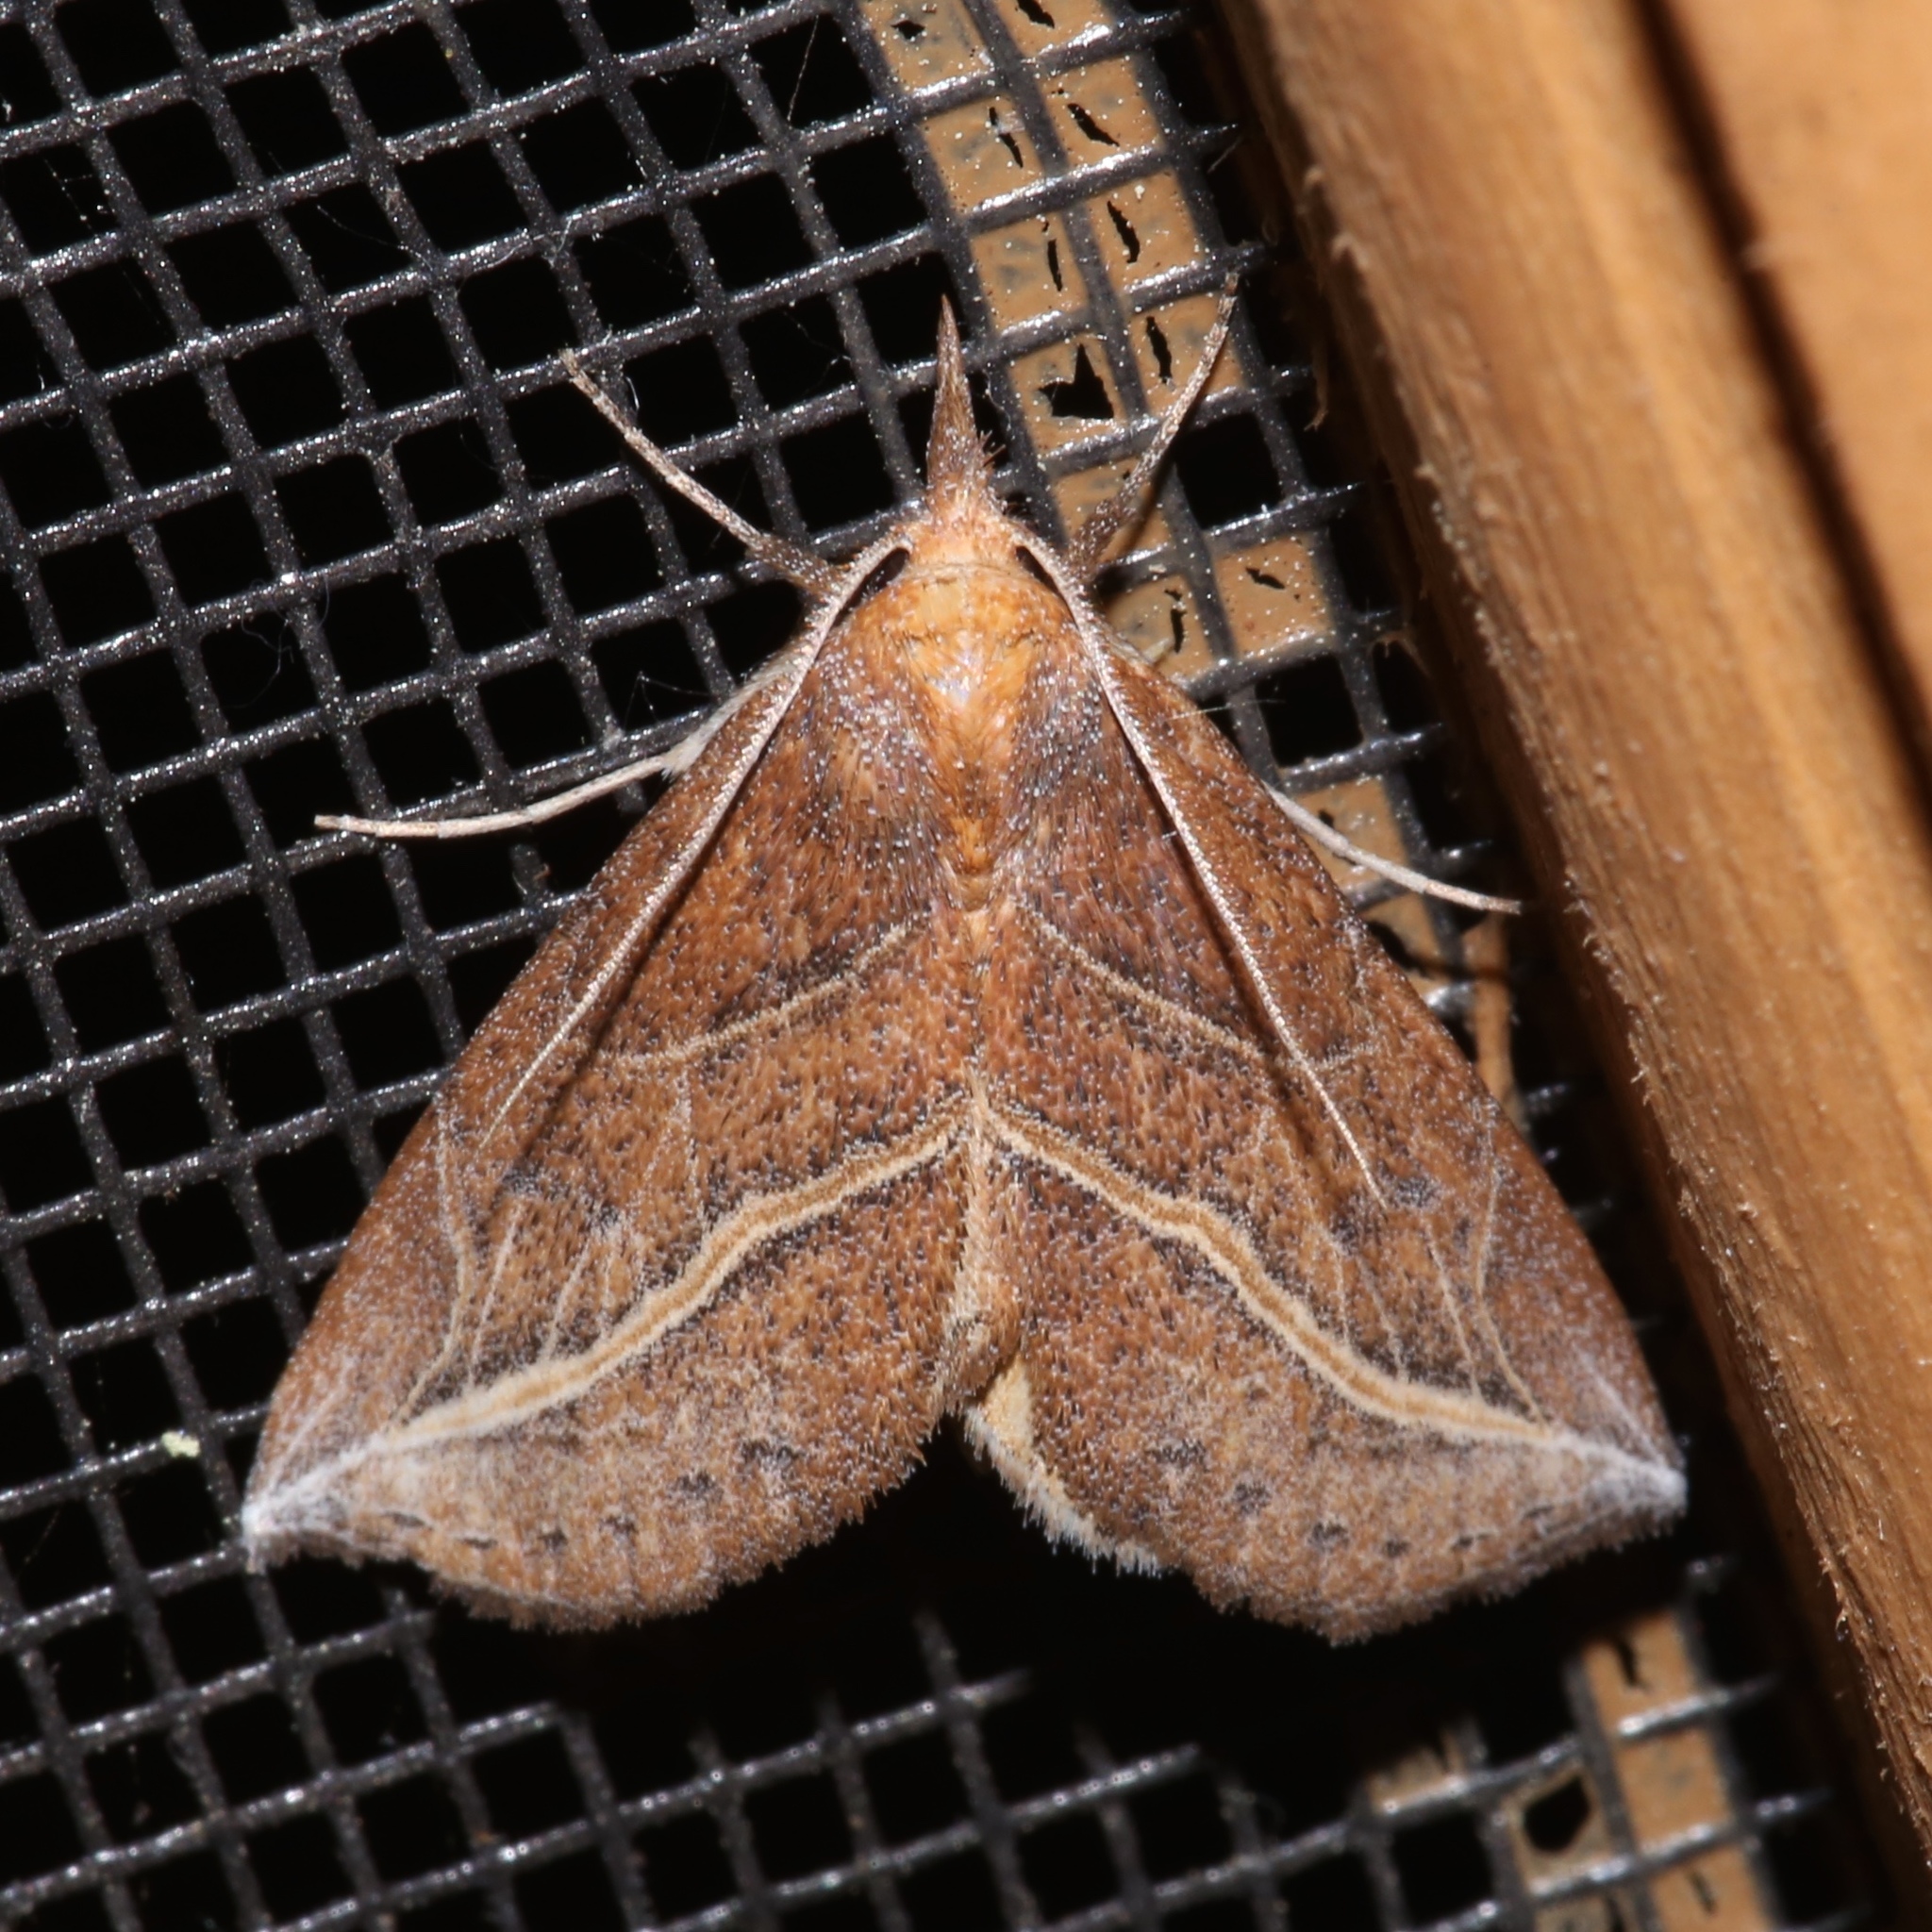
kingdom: Animalia
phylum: Arthropoda
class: Insecta
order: Lepidoptera
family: Erebidae
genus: Phyprosopus
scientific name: Phyprosopus callitrichoides
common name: Curved-lined owlet
